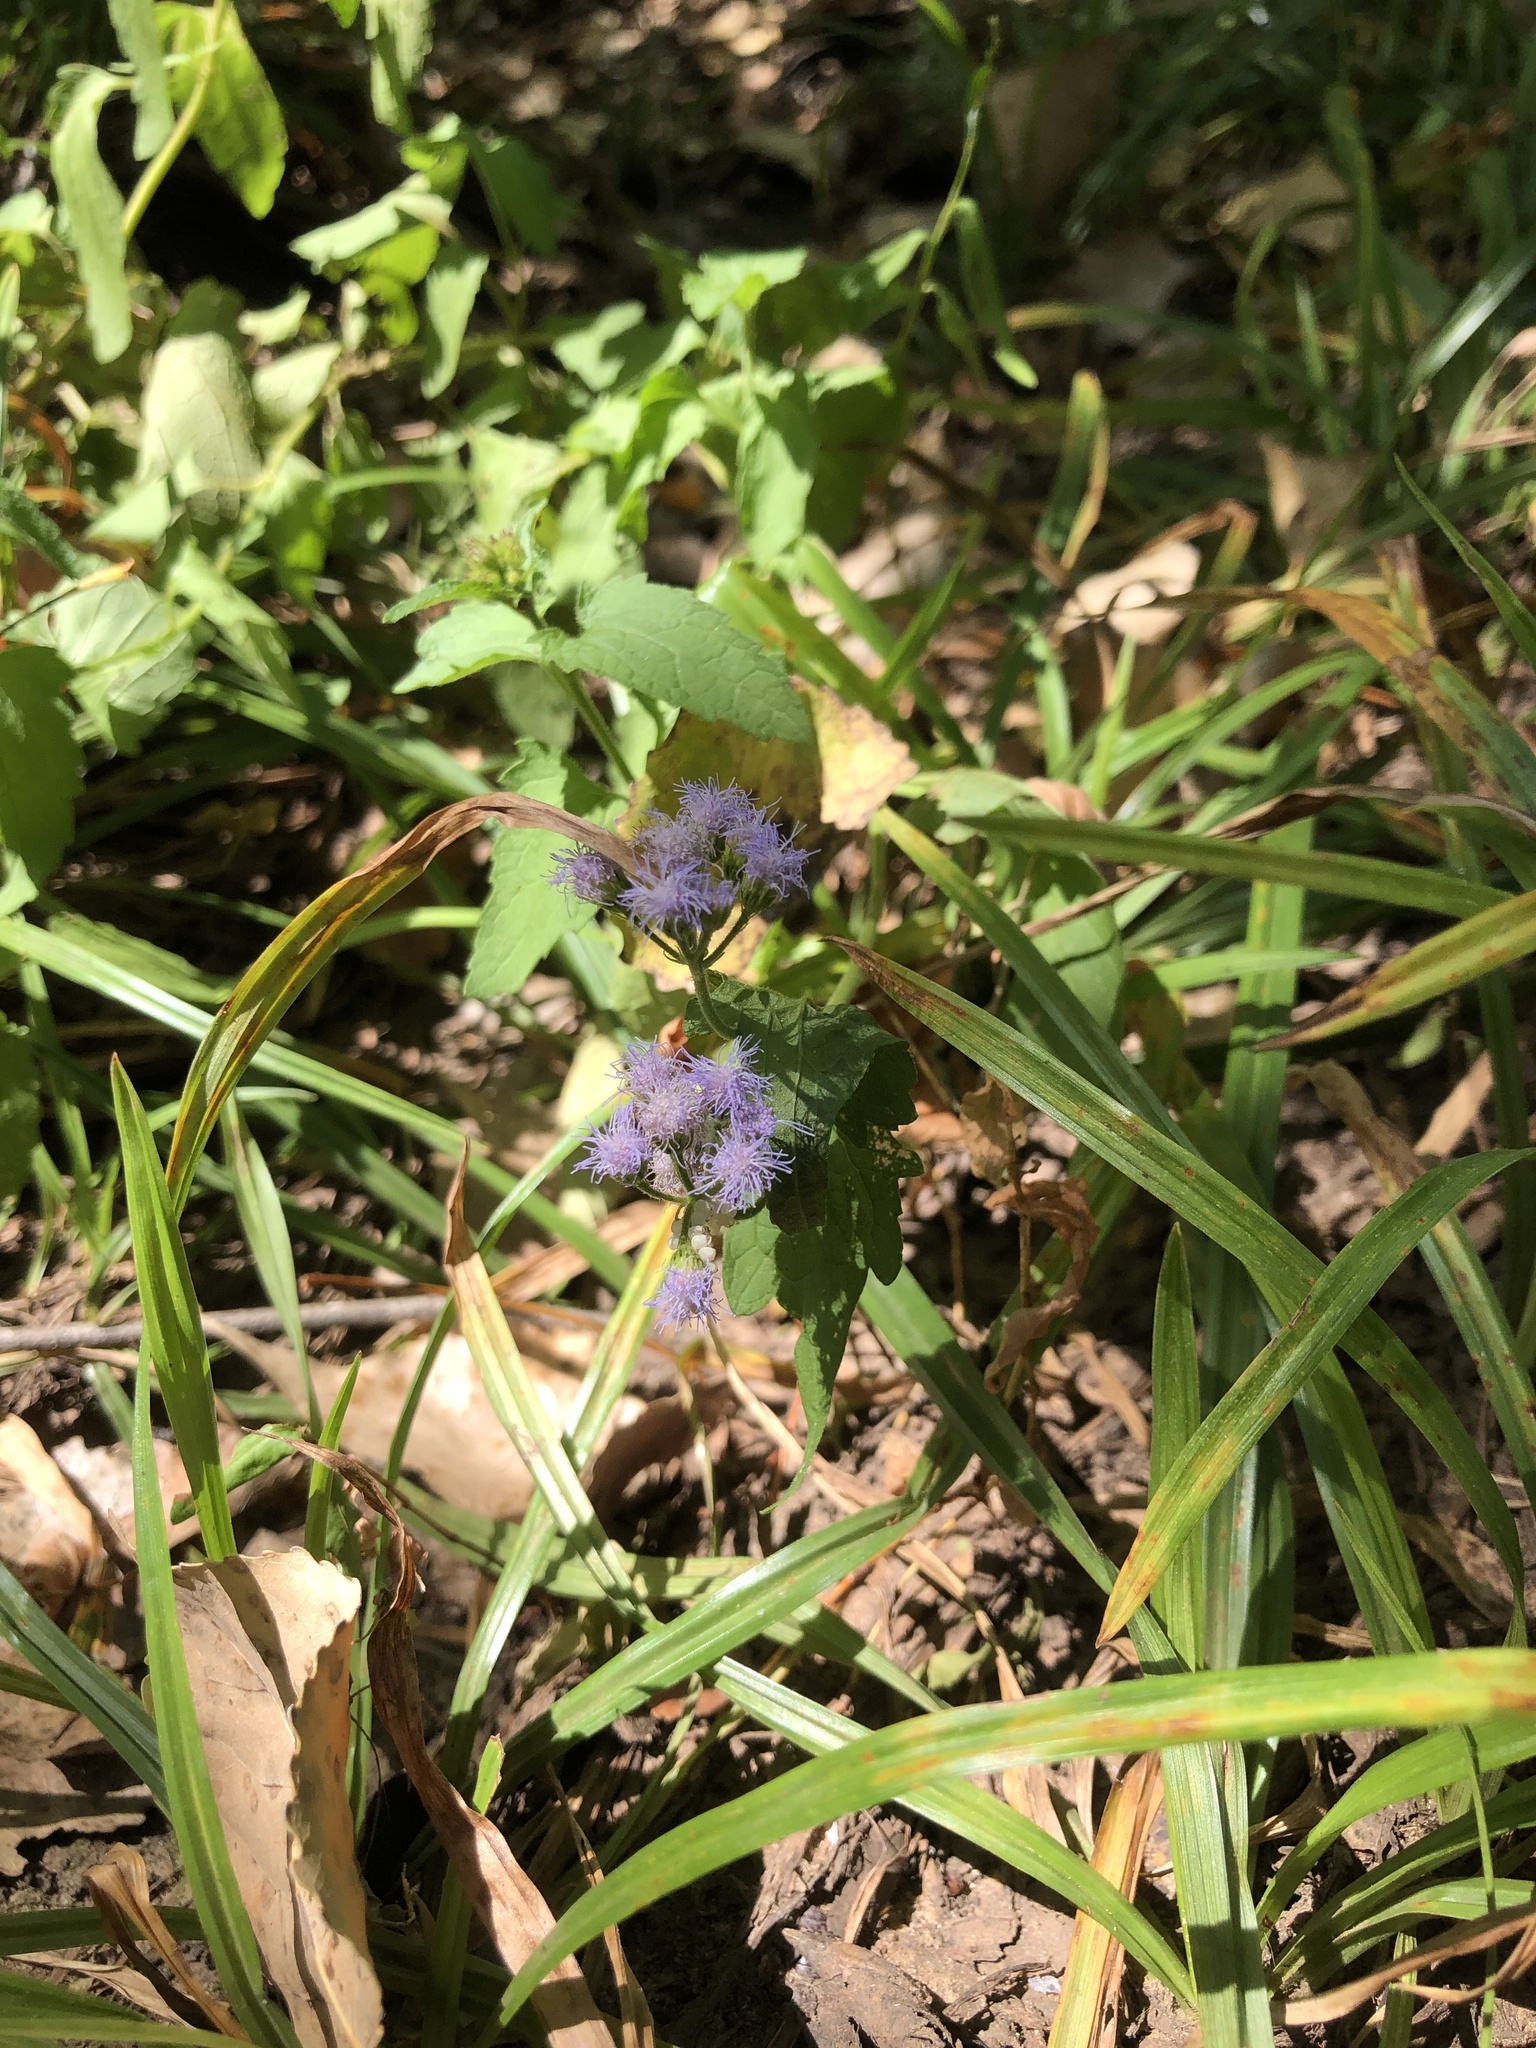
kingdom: Plantae
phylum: Tracheophyta
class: Magnoliopsida
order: Asterales
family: Asteraceae
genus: Conoclinium
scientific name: Conoclinium coelestinum
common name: Blue mistflower
